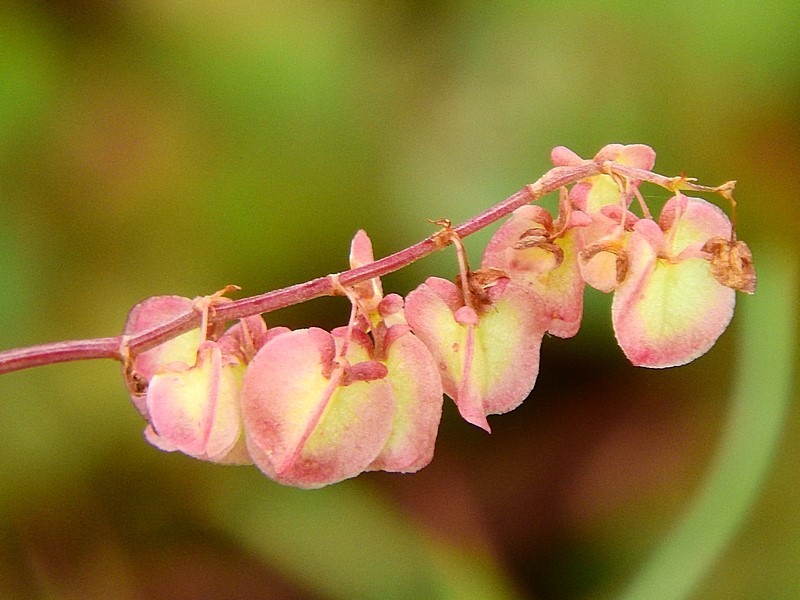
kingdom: Plantae
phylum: Tracheophyta
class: Magnoliopsida
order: Caryophyllales
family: Polygonaceae
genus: Rumex
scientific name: Rumex sagittatus
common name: Climbing dock
